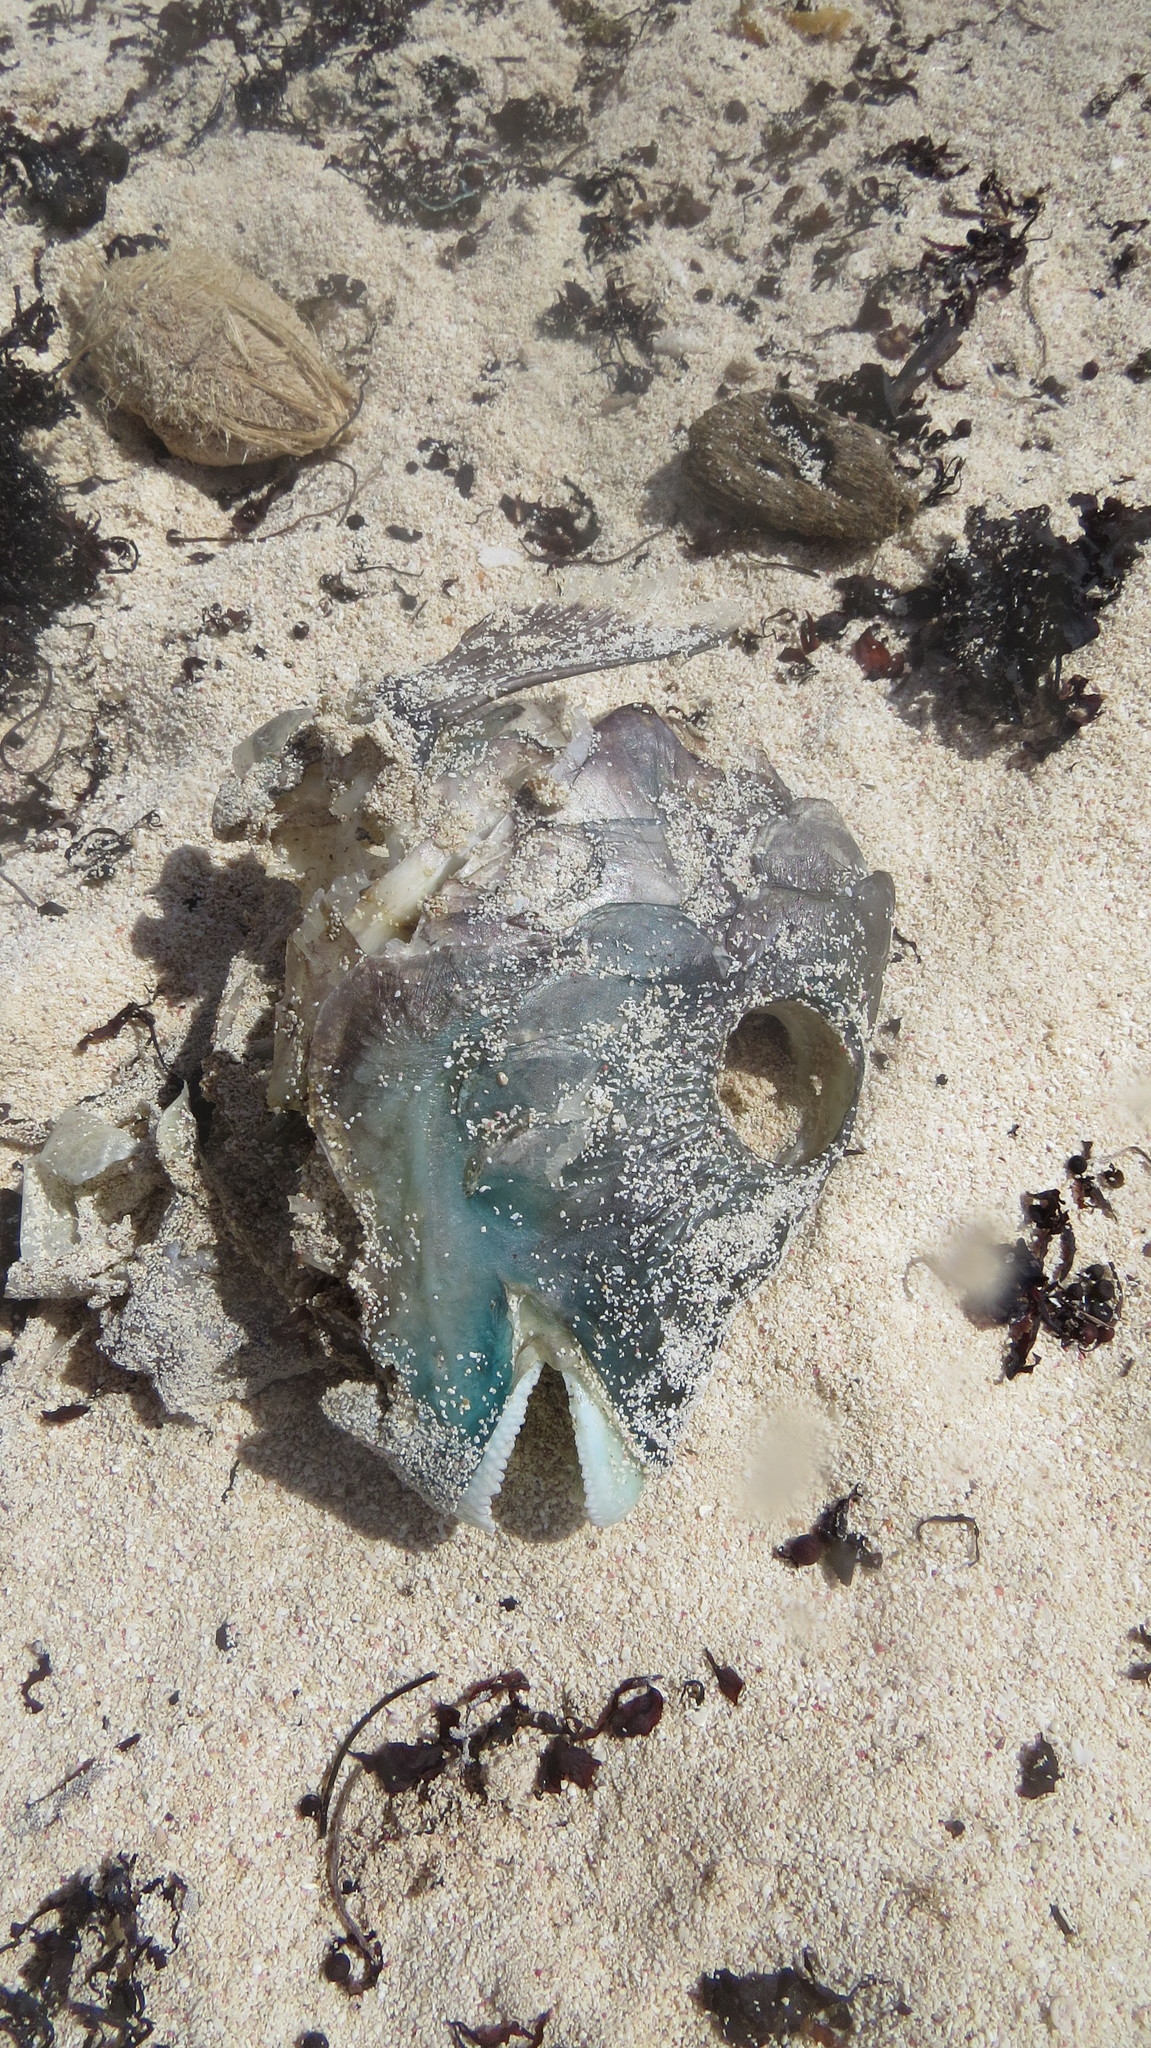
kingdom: Animalia
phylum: Chordata
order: Perciformes
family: Labridae
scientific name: Labridae
